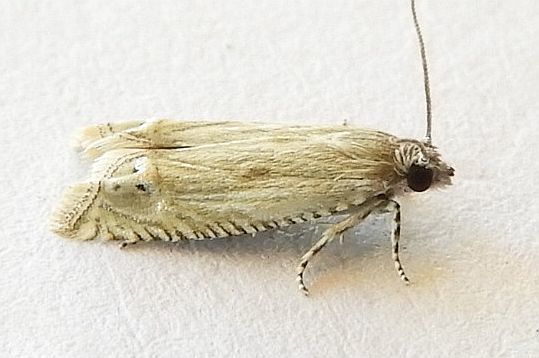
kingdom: Animalia
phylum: Arthropoda
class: Insecta
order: Lepidoptera
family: Tortricidae
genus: Eucosma
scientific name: Eucosma grindeliana
